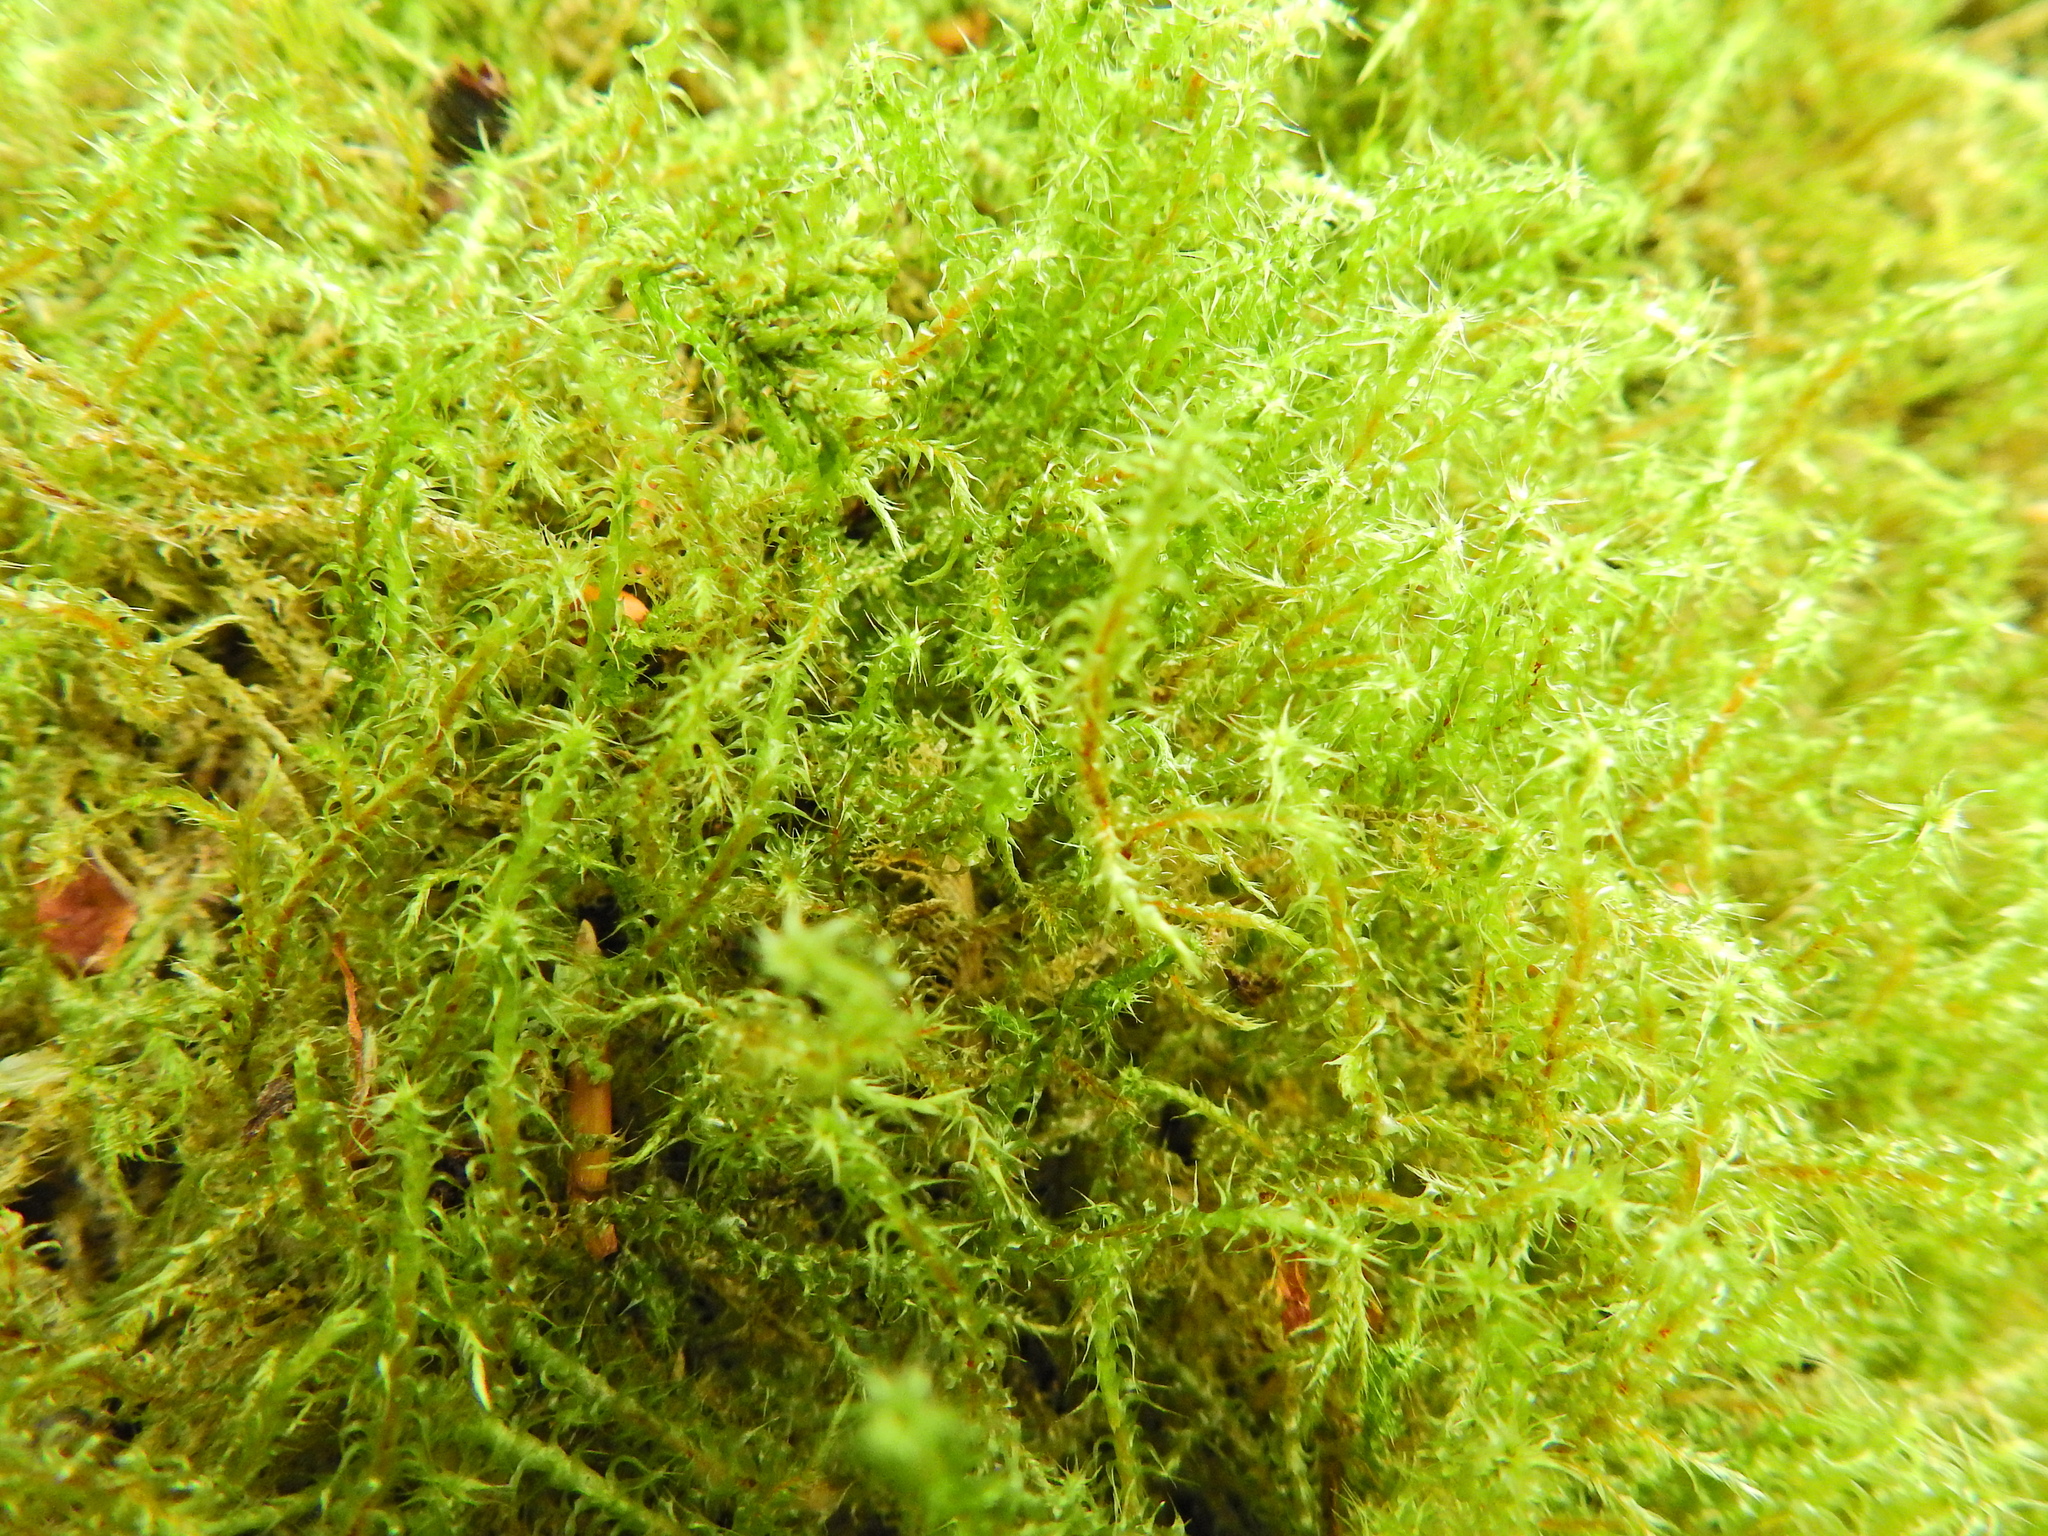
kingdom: Plantae
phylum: Bryophyta
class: Bryopsida
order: Hypnales
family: Hylocomiaceae
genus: Rhytidiadelphus
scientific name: Rhytidiadelphus squarrosus
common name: Springy turf-moss
